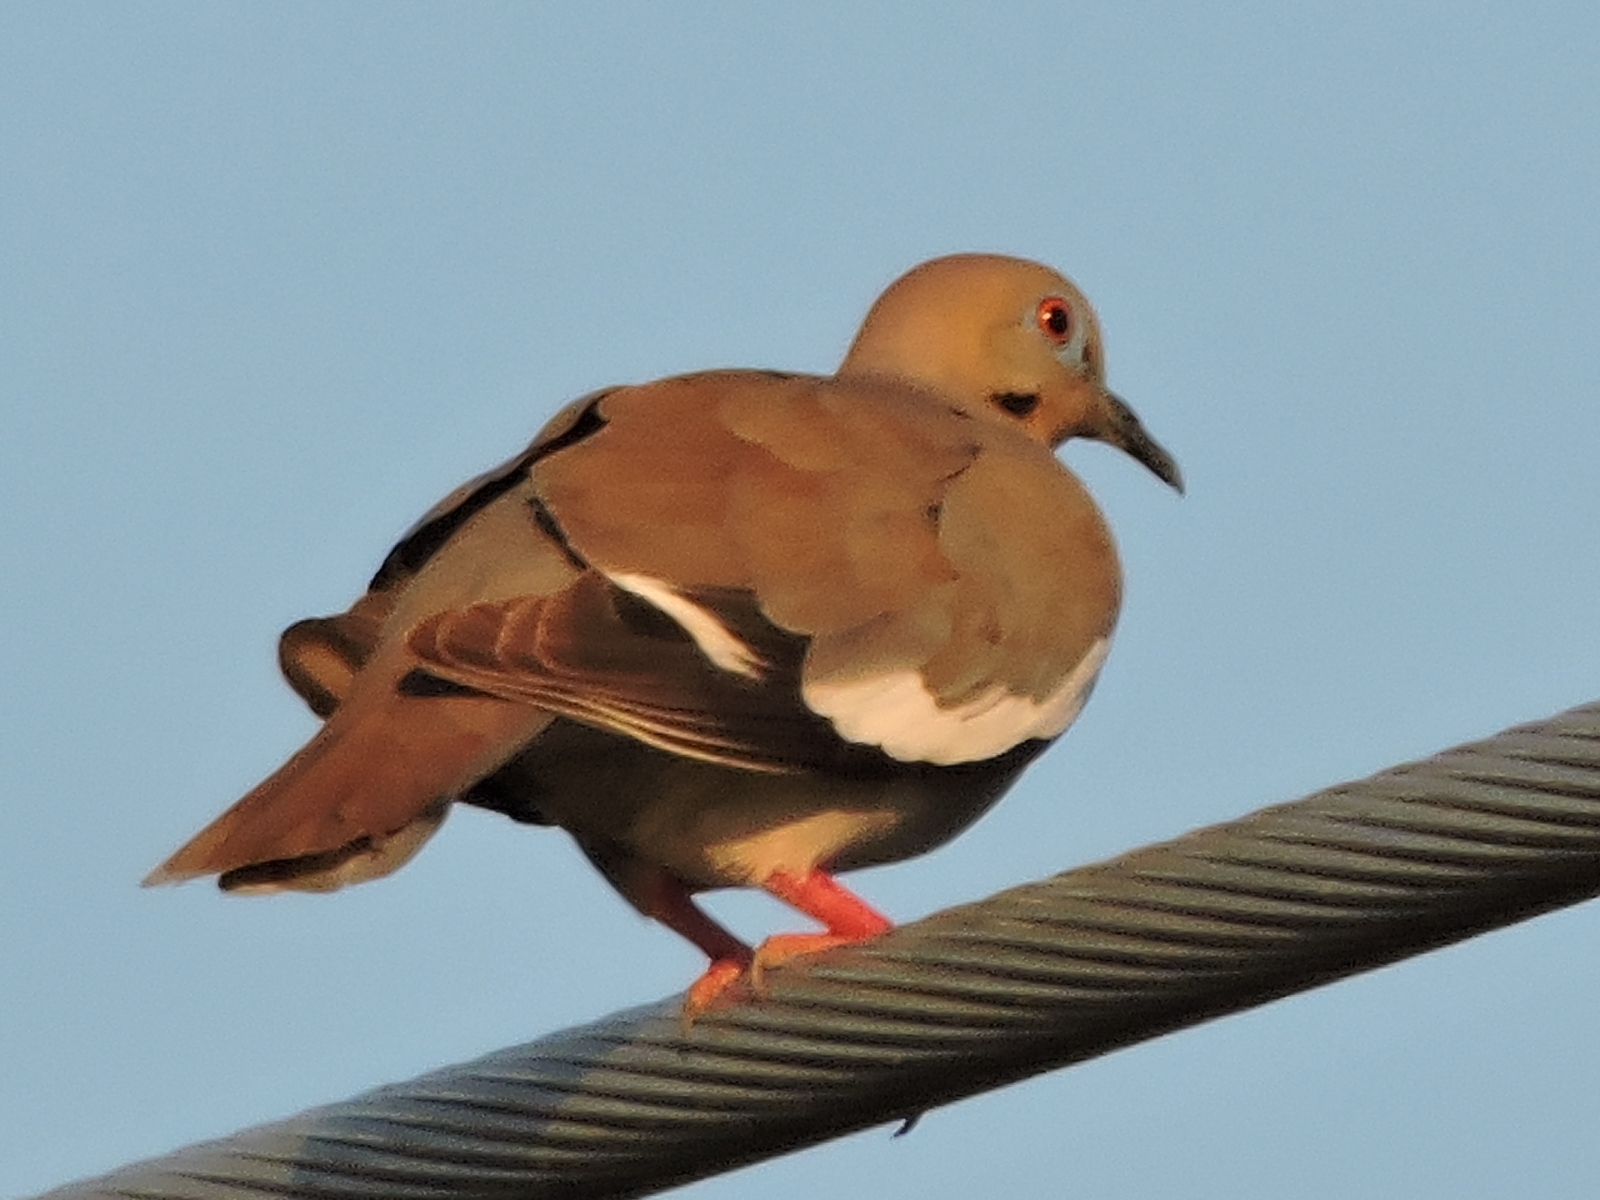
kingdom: Animalia
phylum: Chordata
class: Aves
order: Columbiformes
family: Columbidae
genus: Zenaida
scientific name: Zenaida asiatica
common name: White-winged dove
